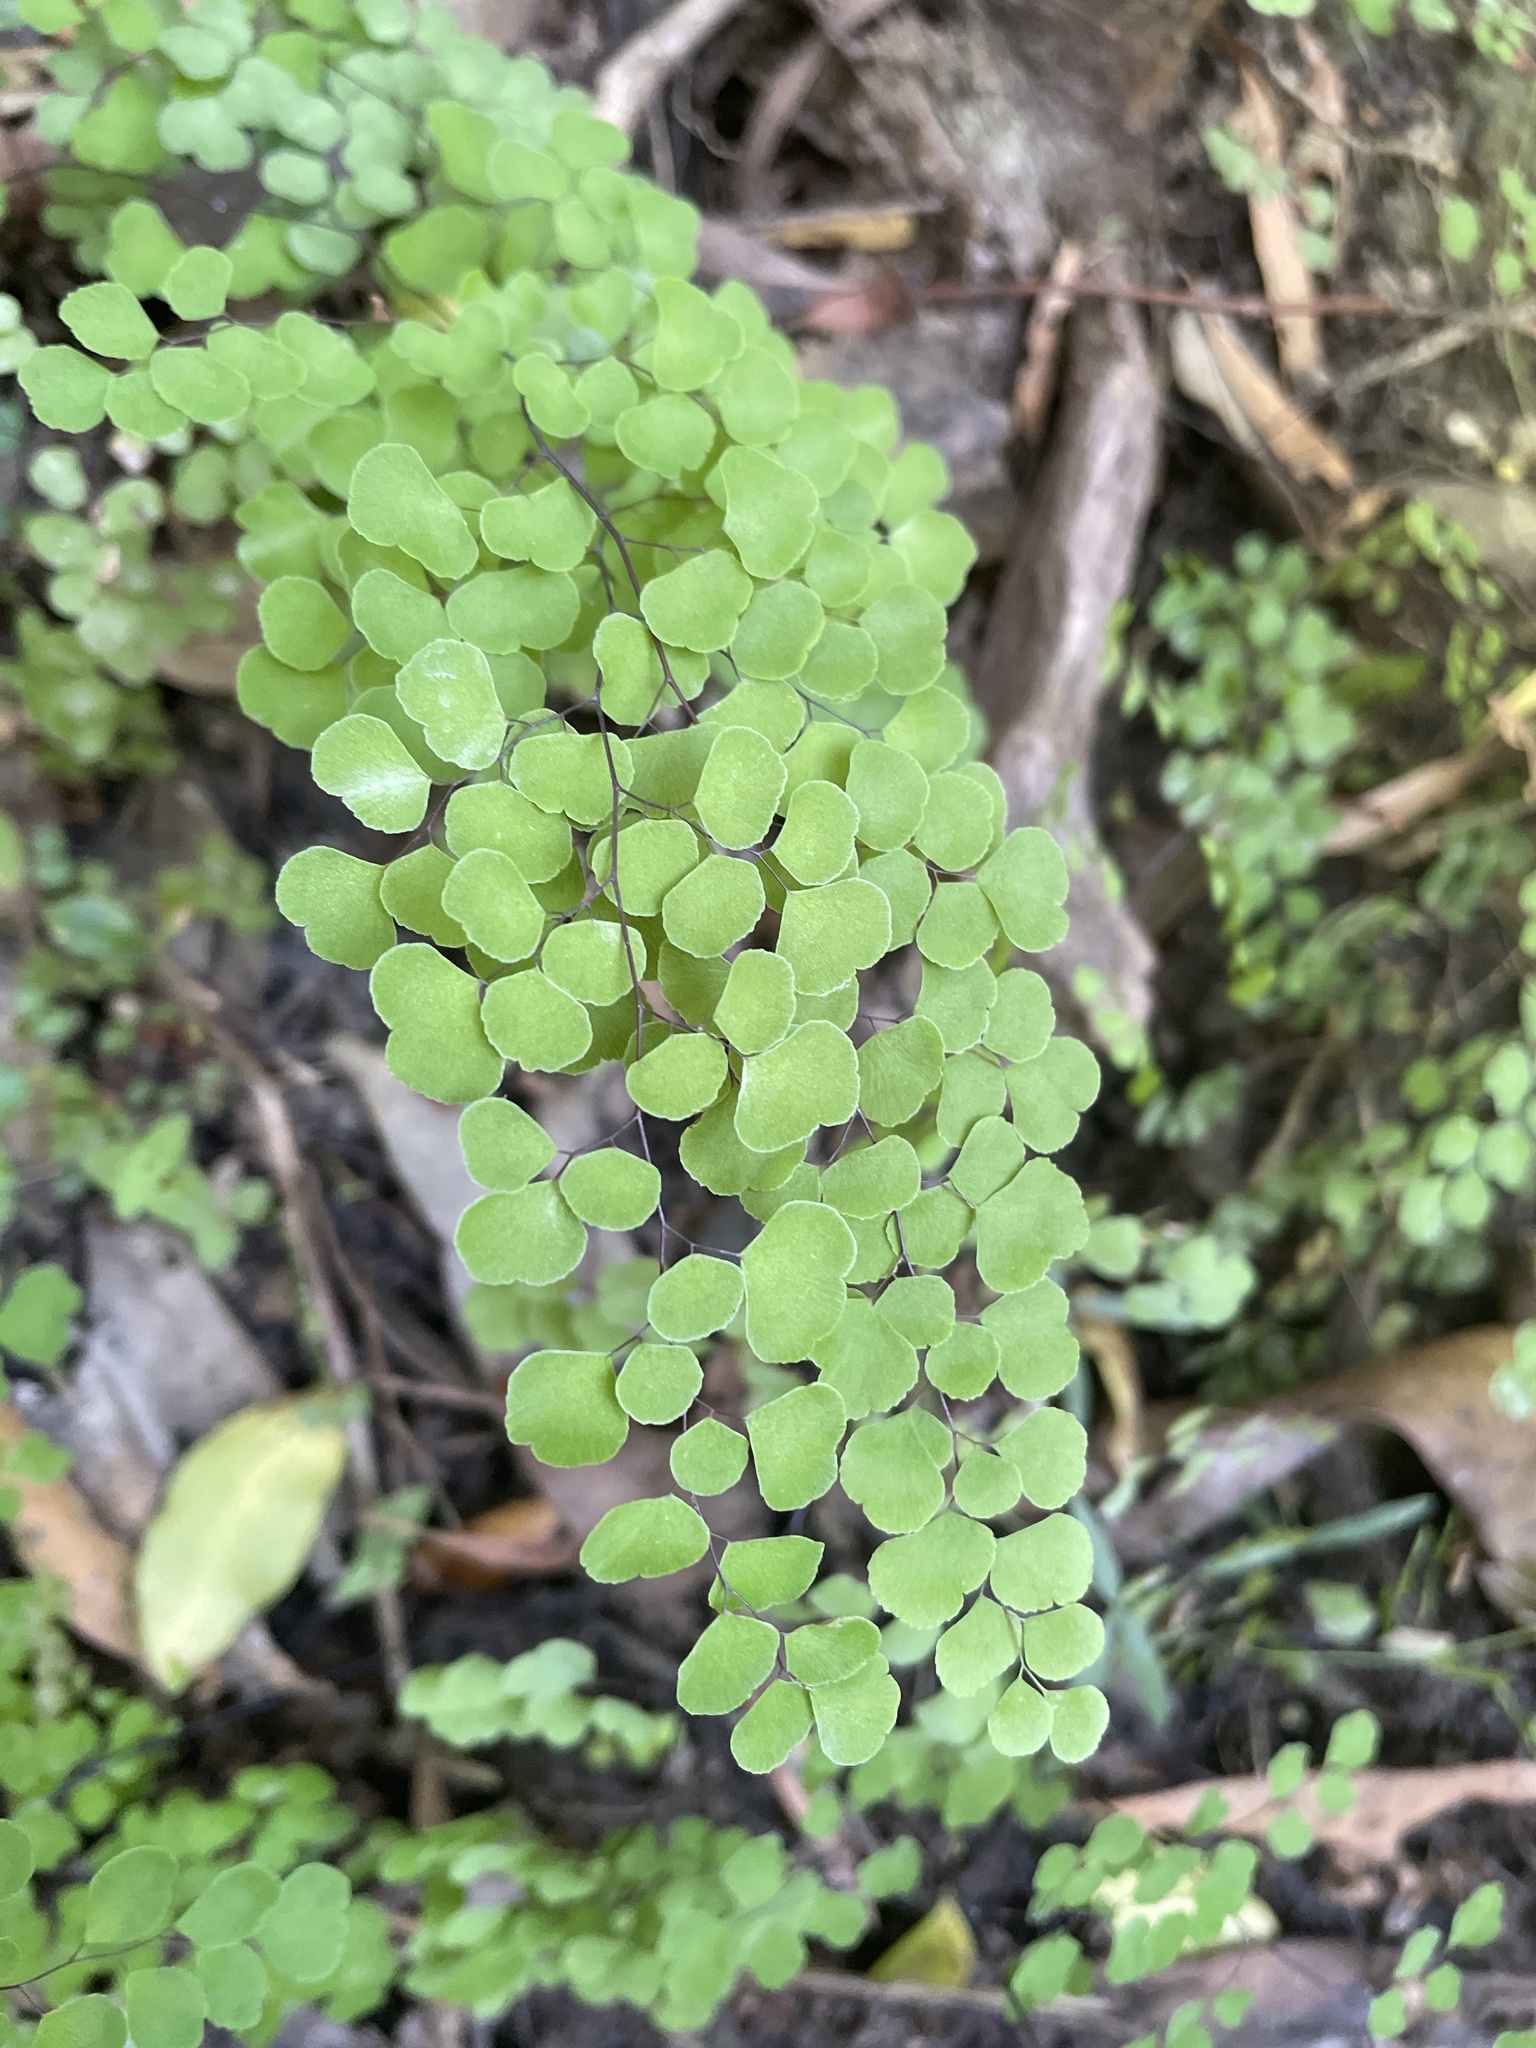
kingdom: Plantae
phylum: Tracheophyta
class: Polypodiopsida
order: Polypodiales
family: Pteridaceae
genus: Adiantum
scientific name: Adiantum aethiopicum
